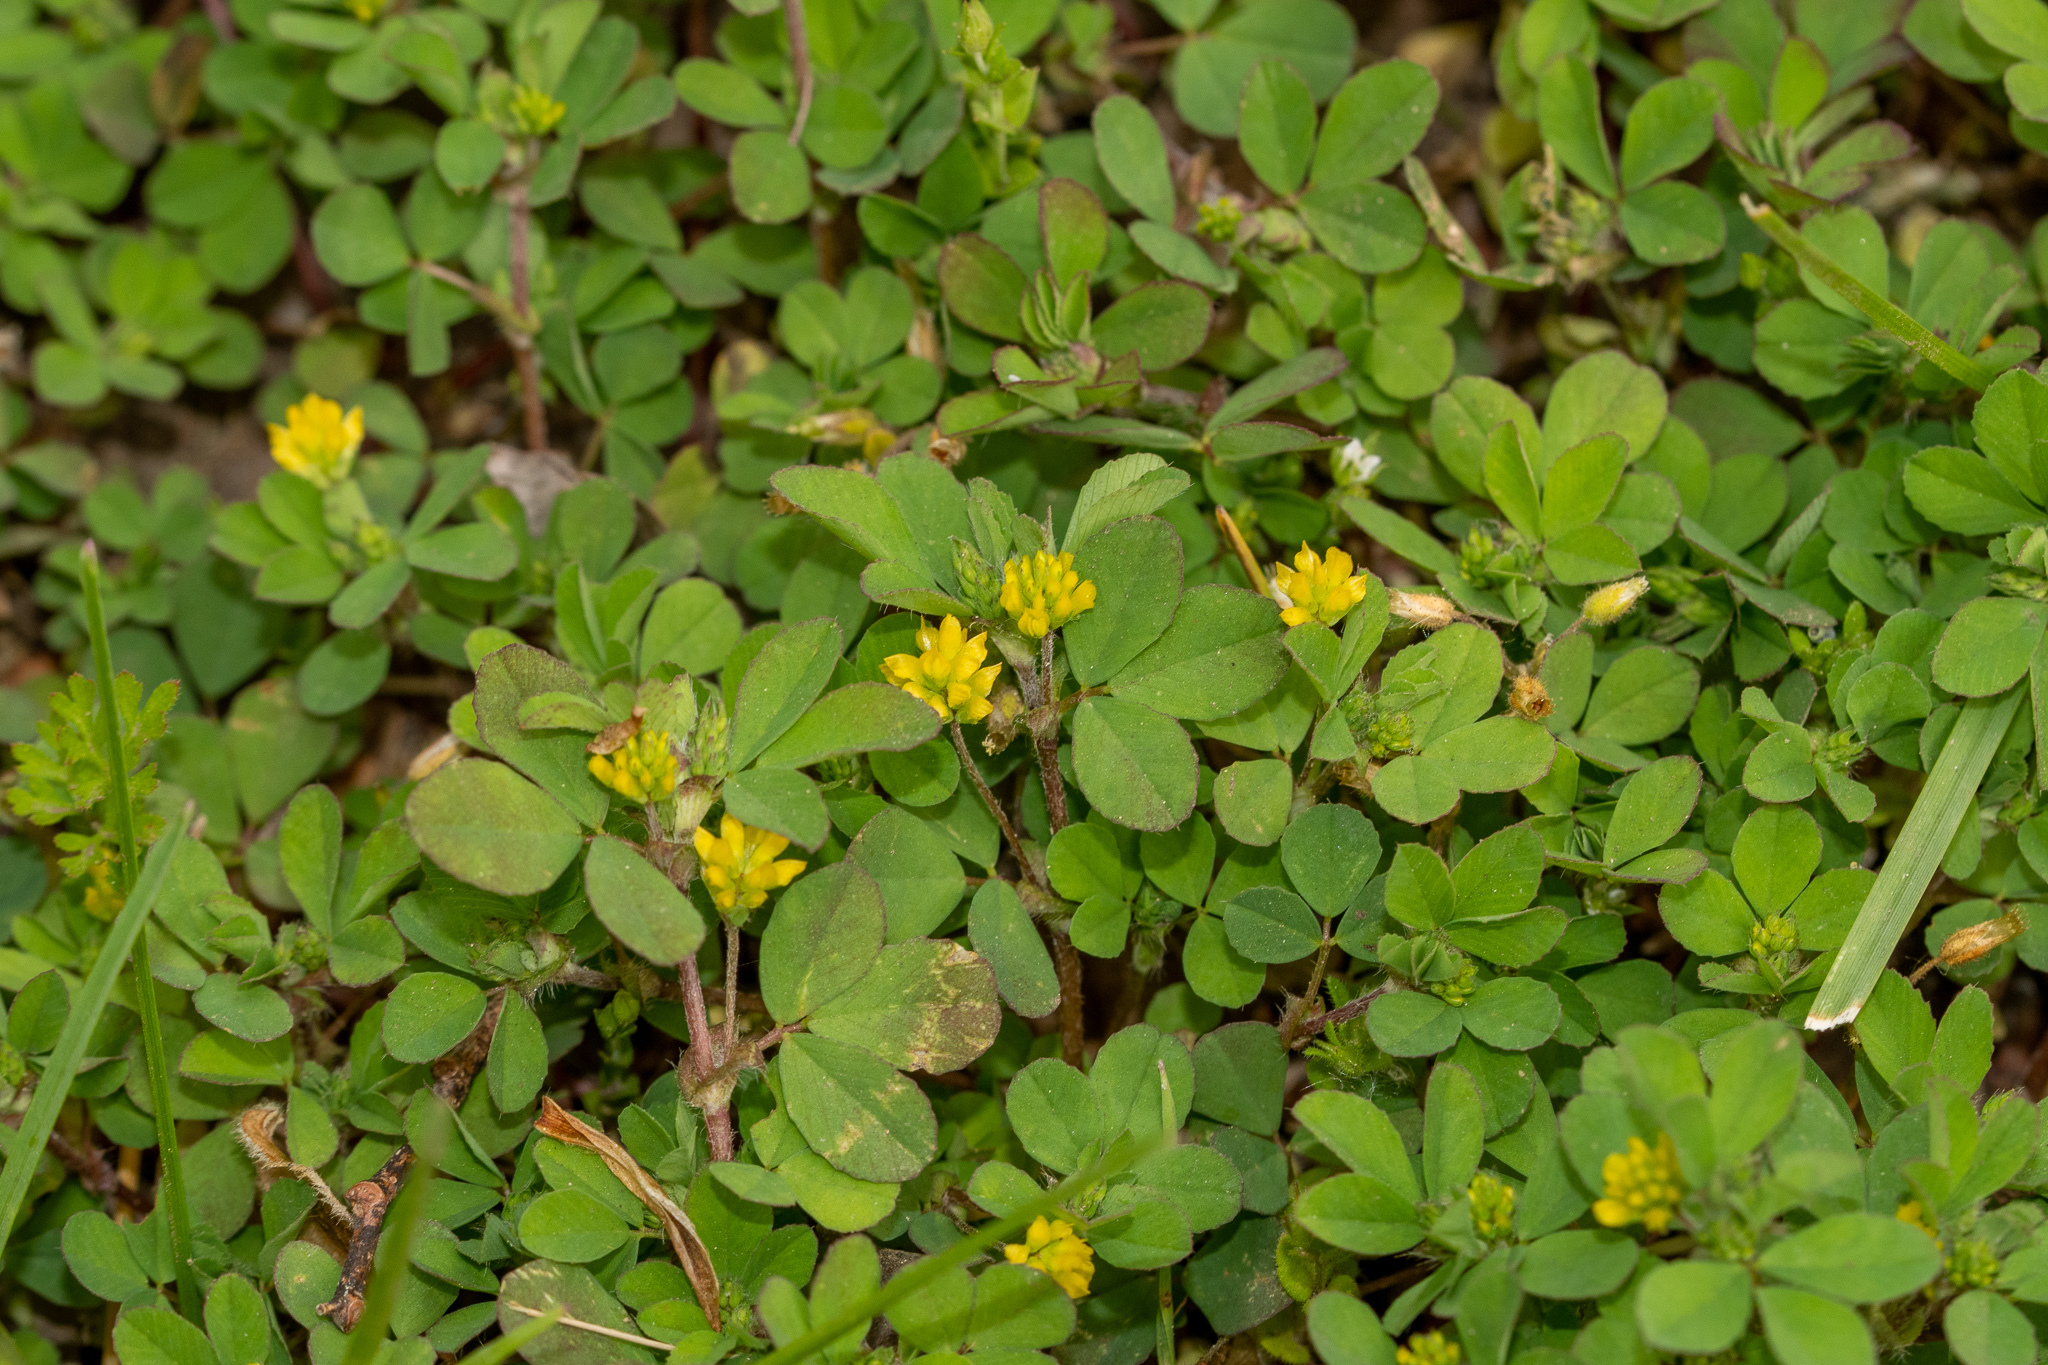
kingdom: Plantae
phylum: Tracheophyta
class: Magnoliopsida
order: Fabales
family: Fabaceae
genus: Trifolium
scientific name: Trifolium dubium
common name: Suckling clover
